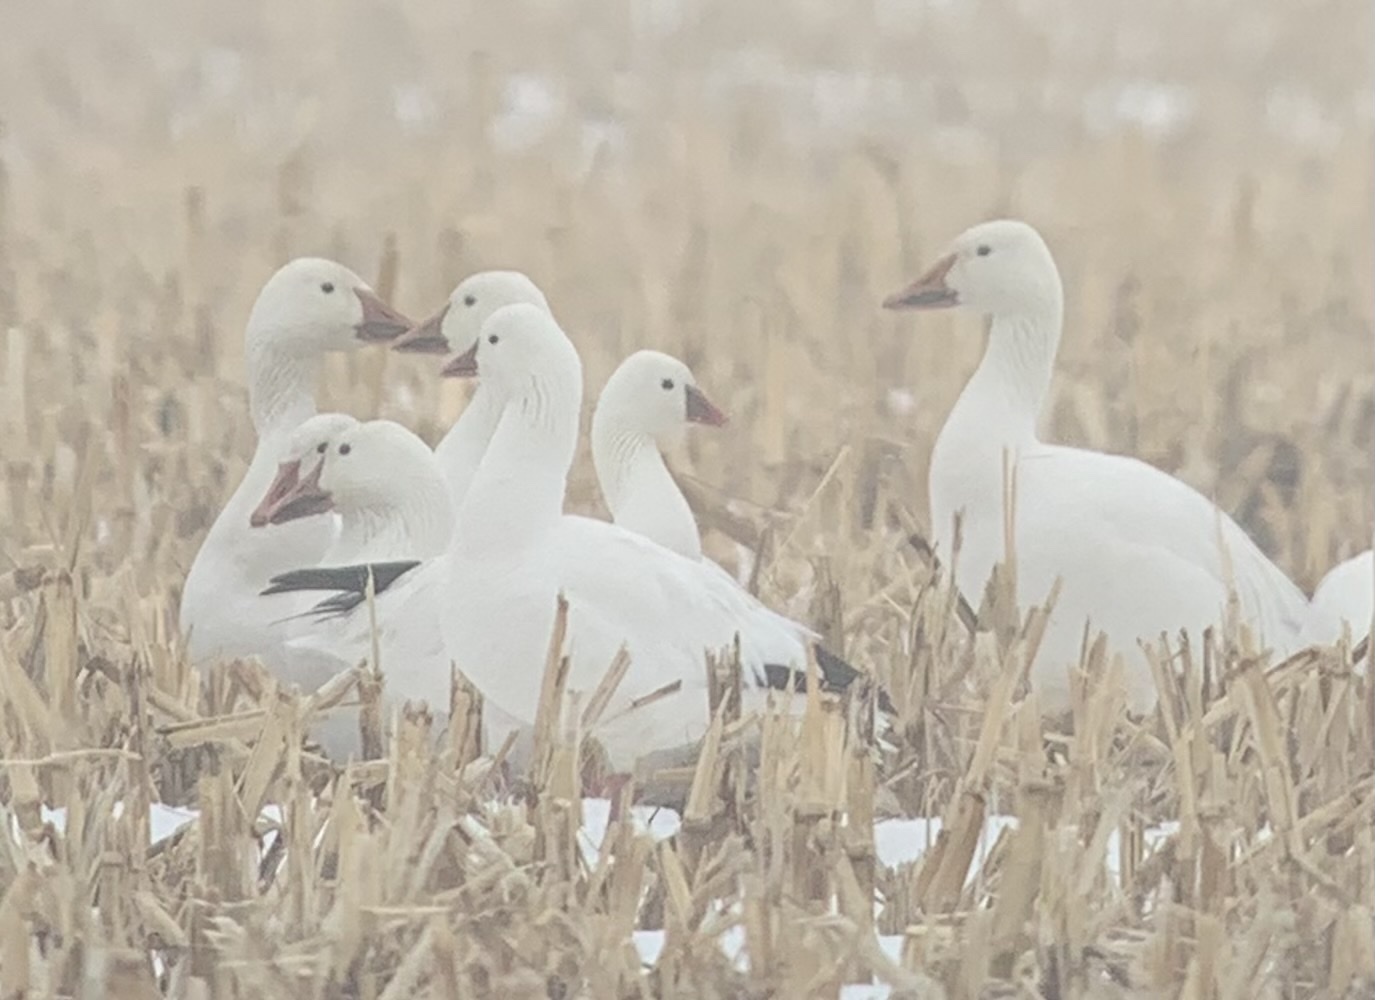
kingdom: Animalia
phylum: Chordata
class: Aves
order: Anseriformes
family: Anatidae
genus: Anser
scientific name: Anser rossii
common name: Ross's goose
